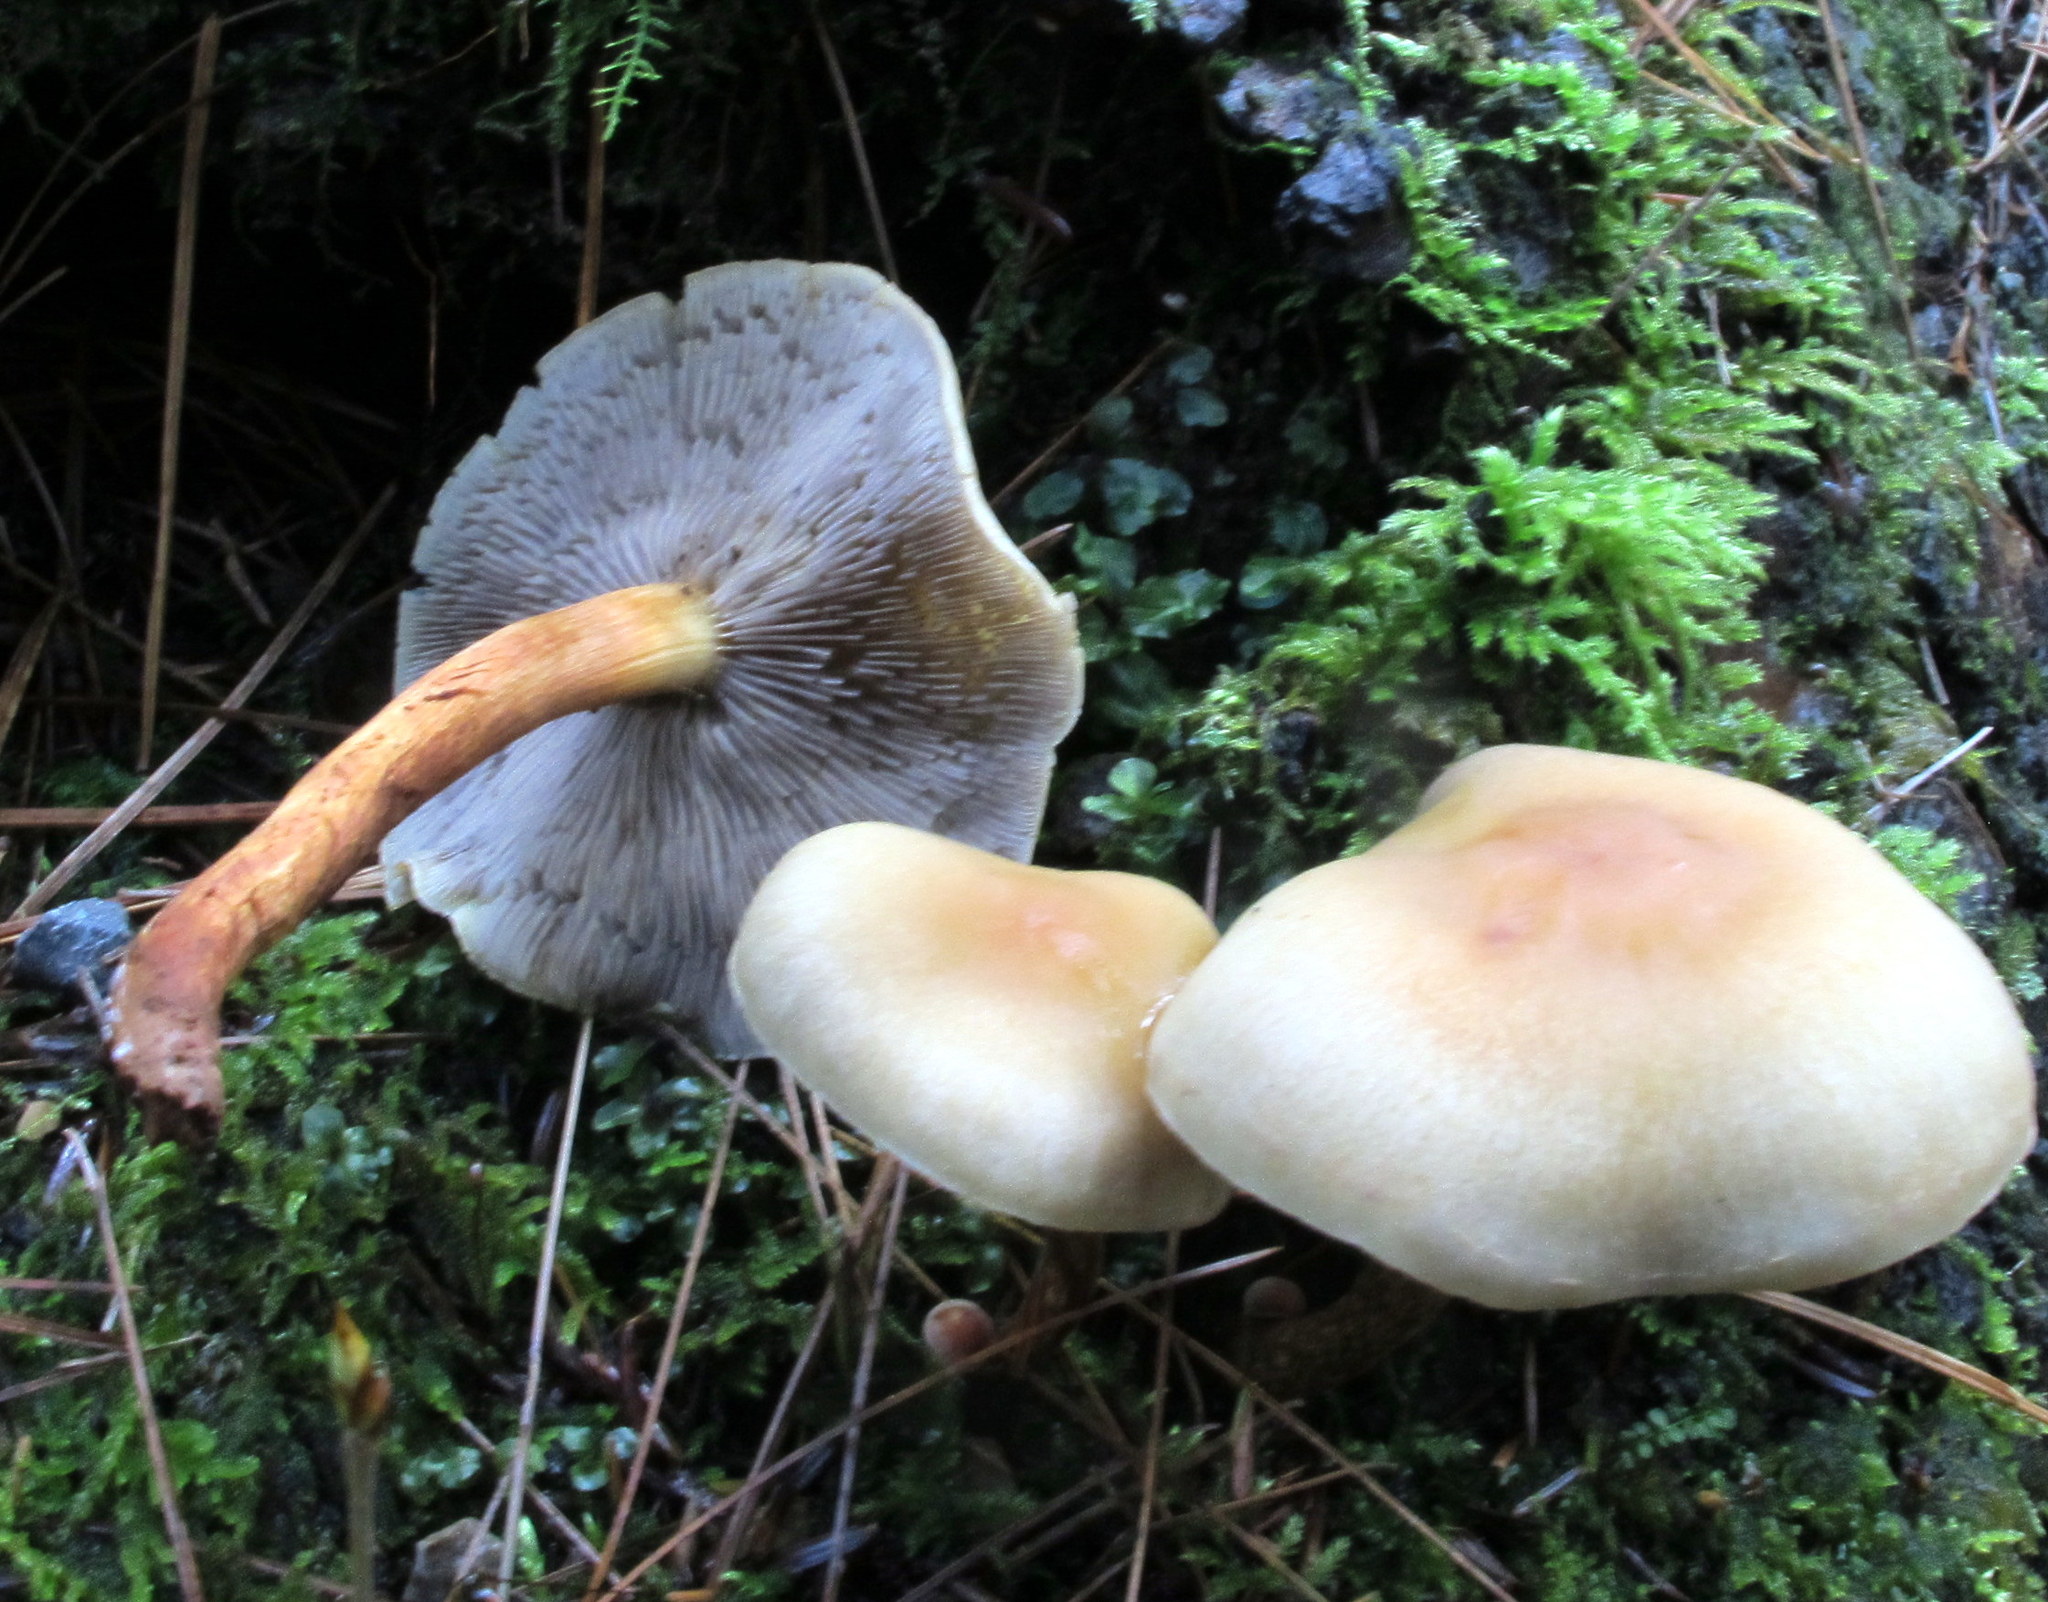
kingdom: Fungi
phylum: Basidiomycota
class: Agaricomycetes
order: Agaricales
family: Strophariaceae
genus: Hypholoma
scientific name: Hypholoma capnoides
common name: Conifer tuft
